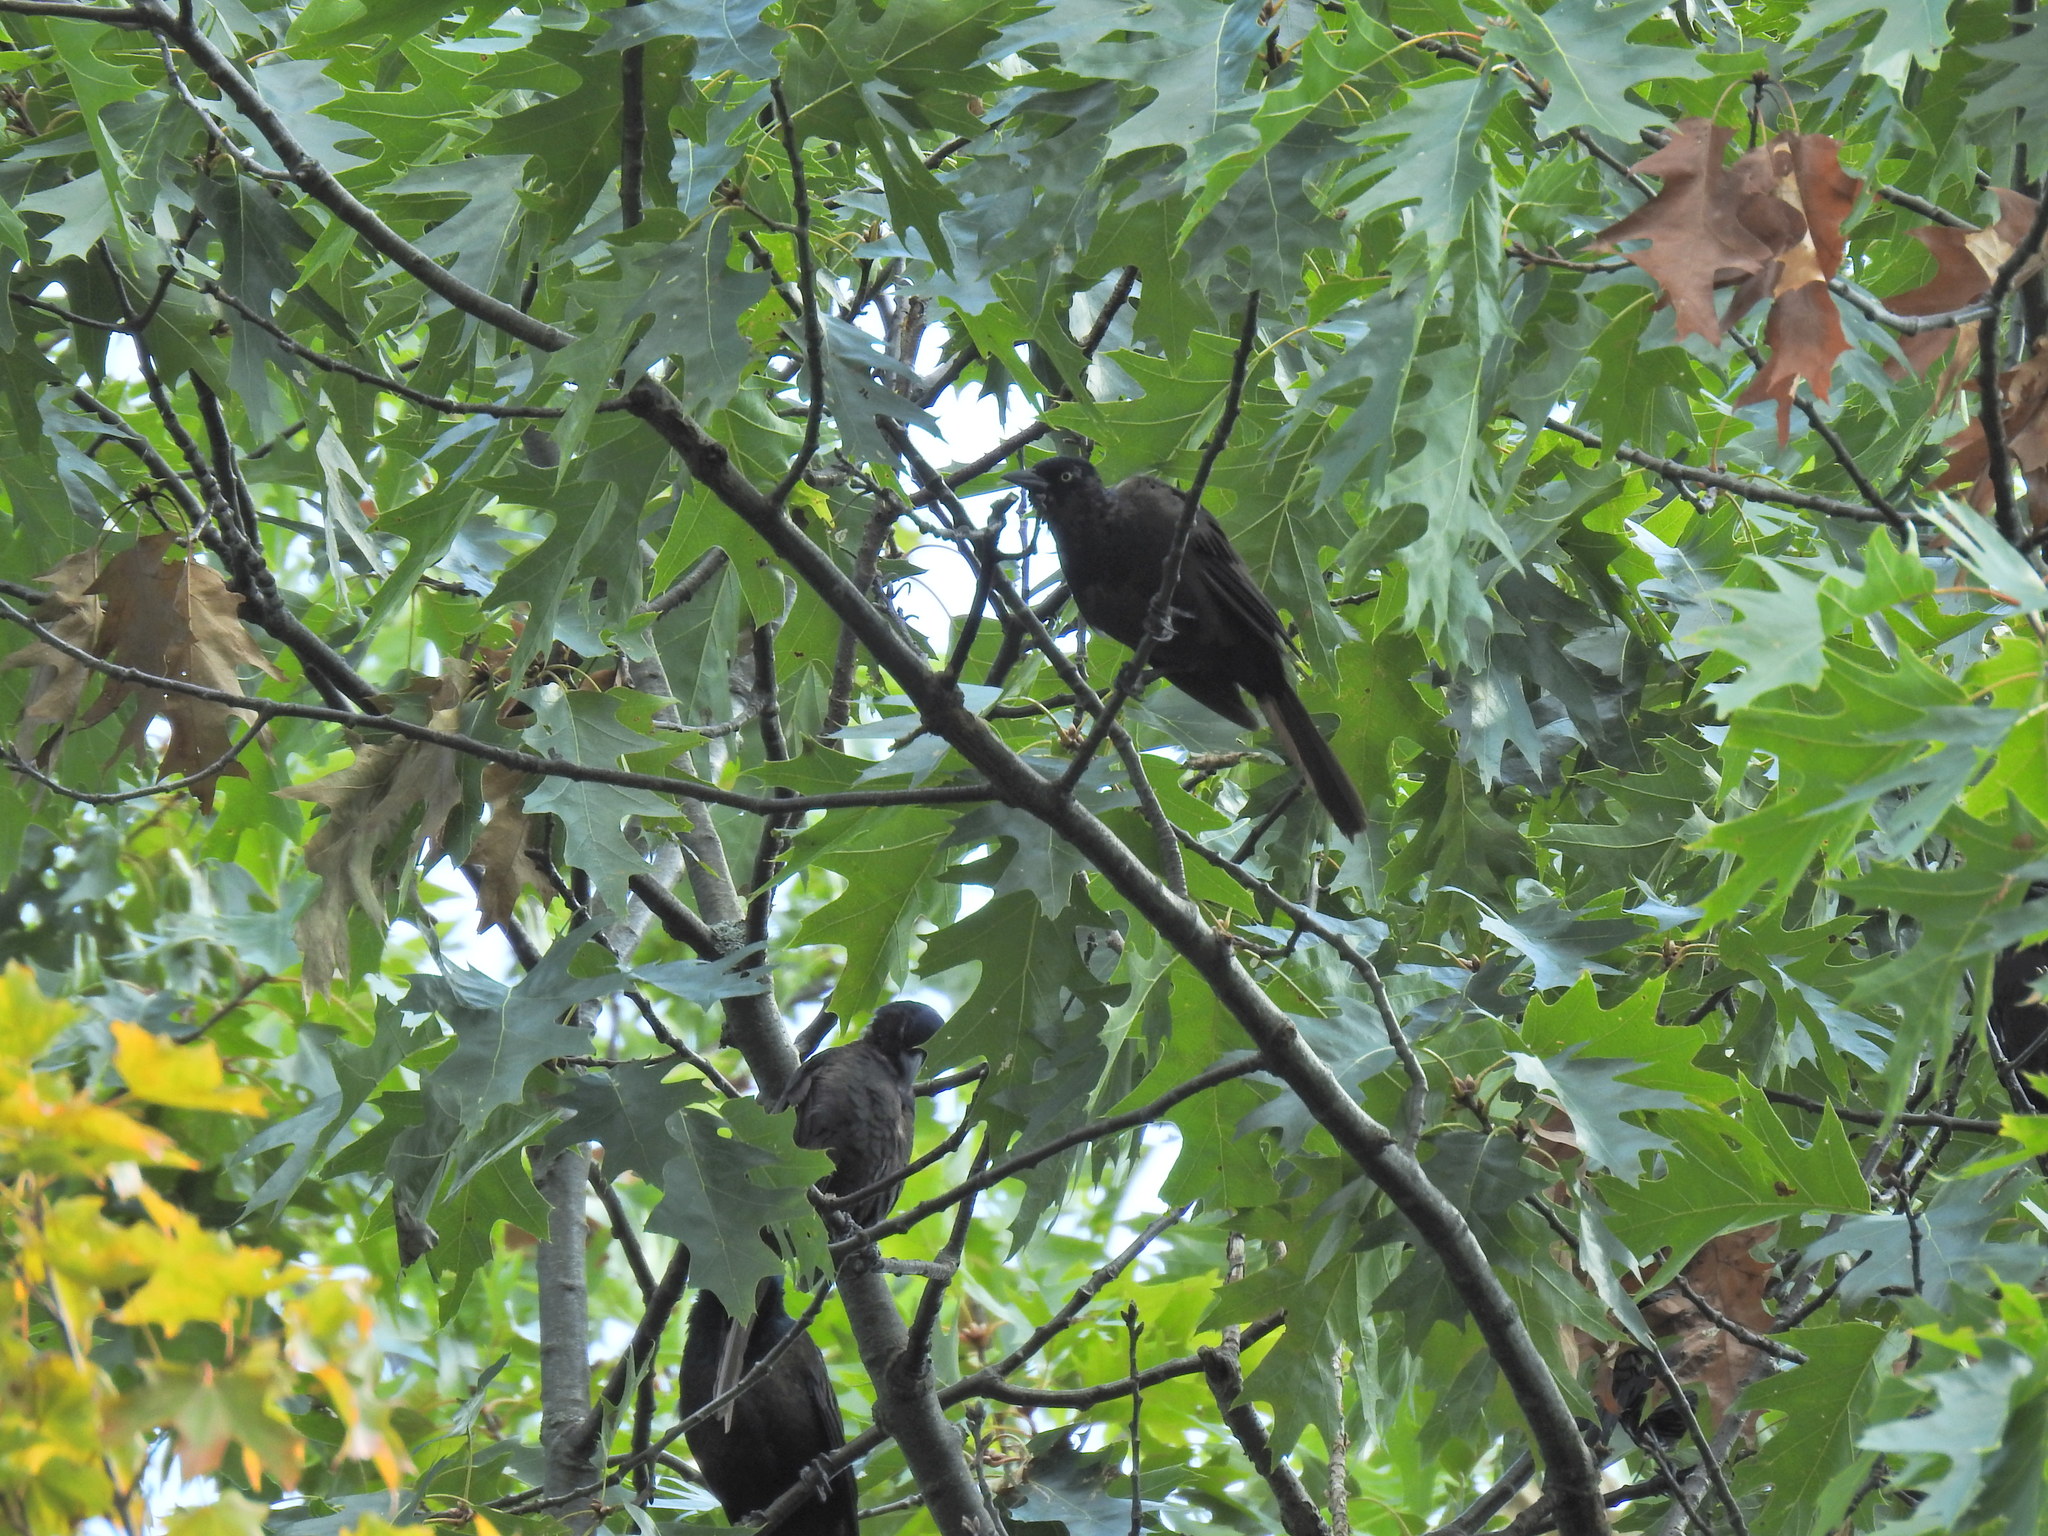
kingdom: Animalia
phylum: Chordata
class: Aves
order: Passeriformes
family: Icteridae
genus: Quiscalus
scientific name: Quiscalus quiscula
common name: Common grackle
